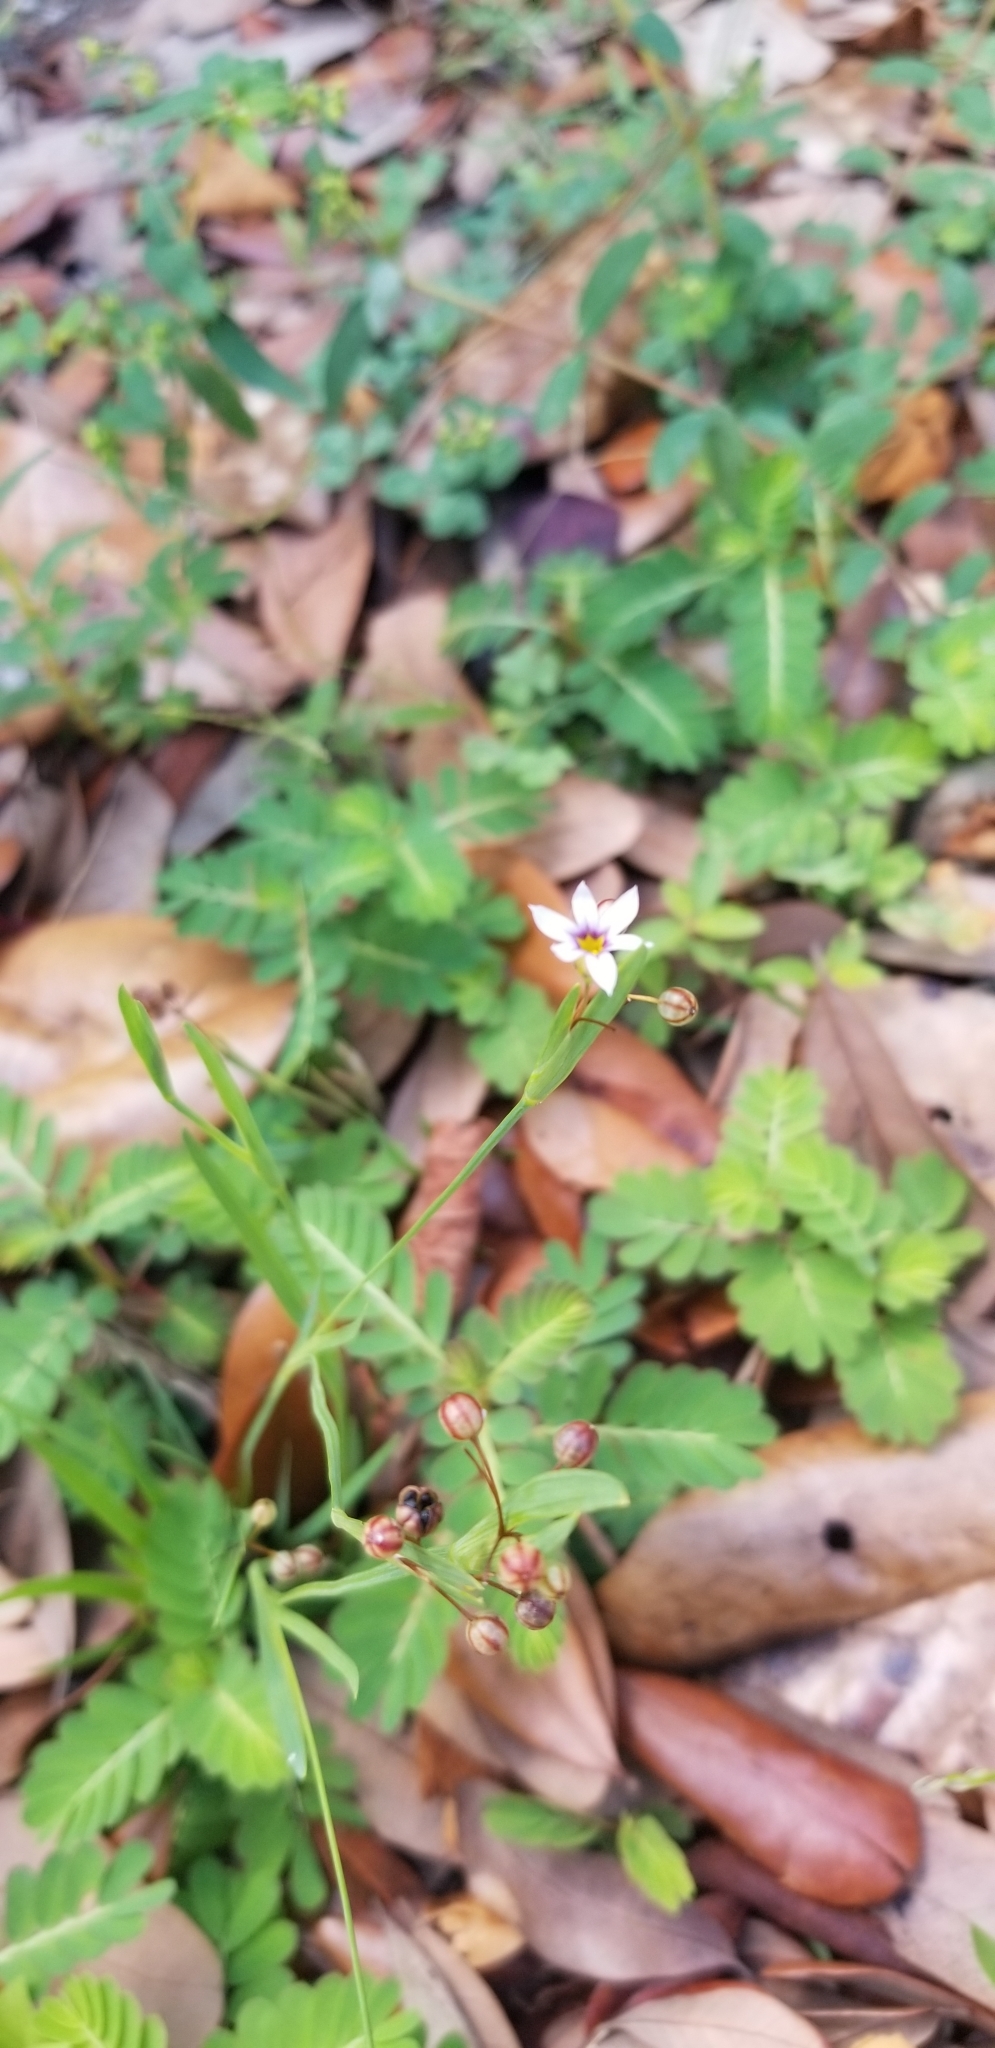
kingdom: Plantae
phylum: Tracheophyta
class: Liliopsida
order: Asparagales
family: Iridaceae
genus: Sisyrinchium
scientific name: Sisyrinchium micranthum
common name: Bermuda pigroot
